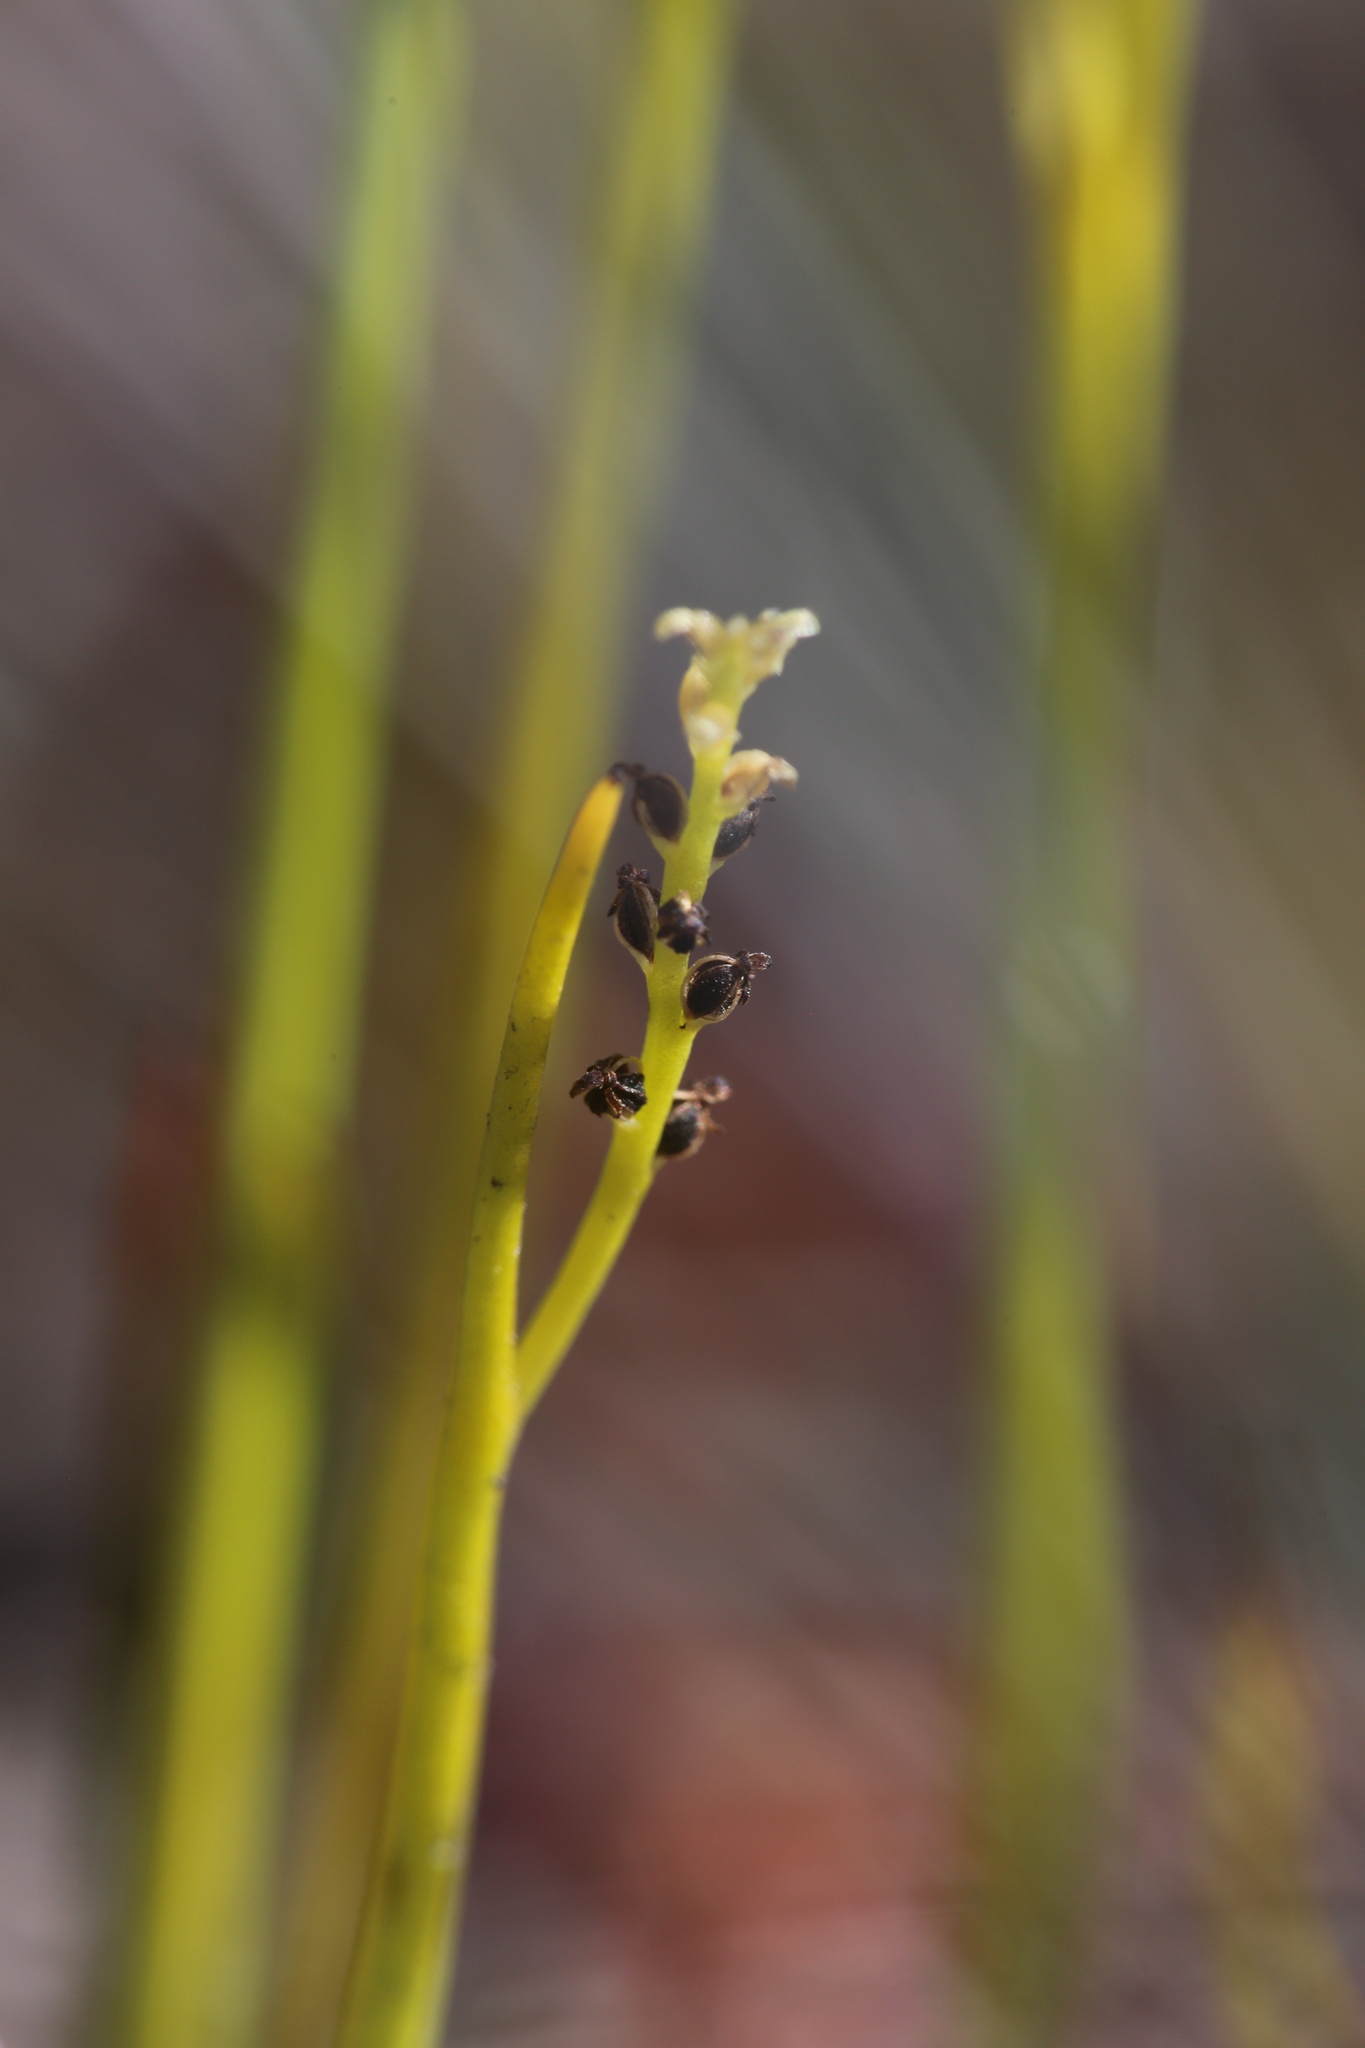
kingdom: Plantae
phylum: Tracheophyta
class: Liliopsida
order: Asparagales
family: Orchidaceae
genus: Microtis
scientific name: Microtis atrata
